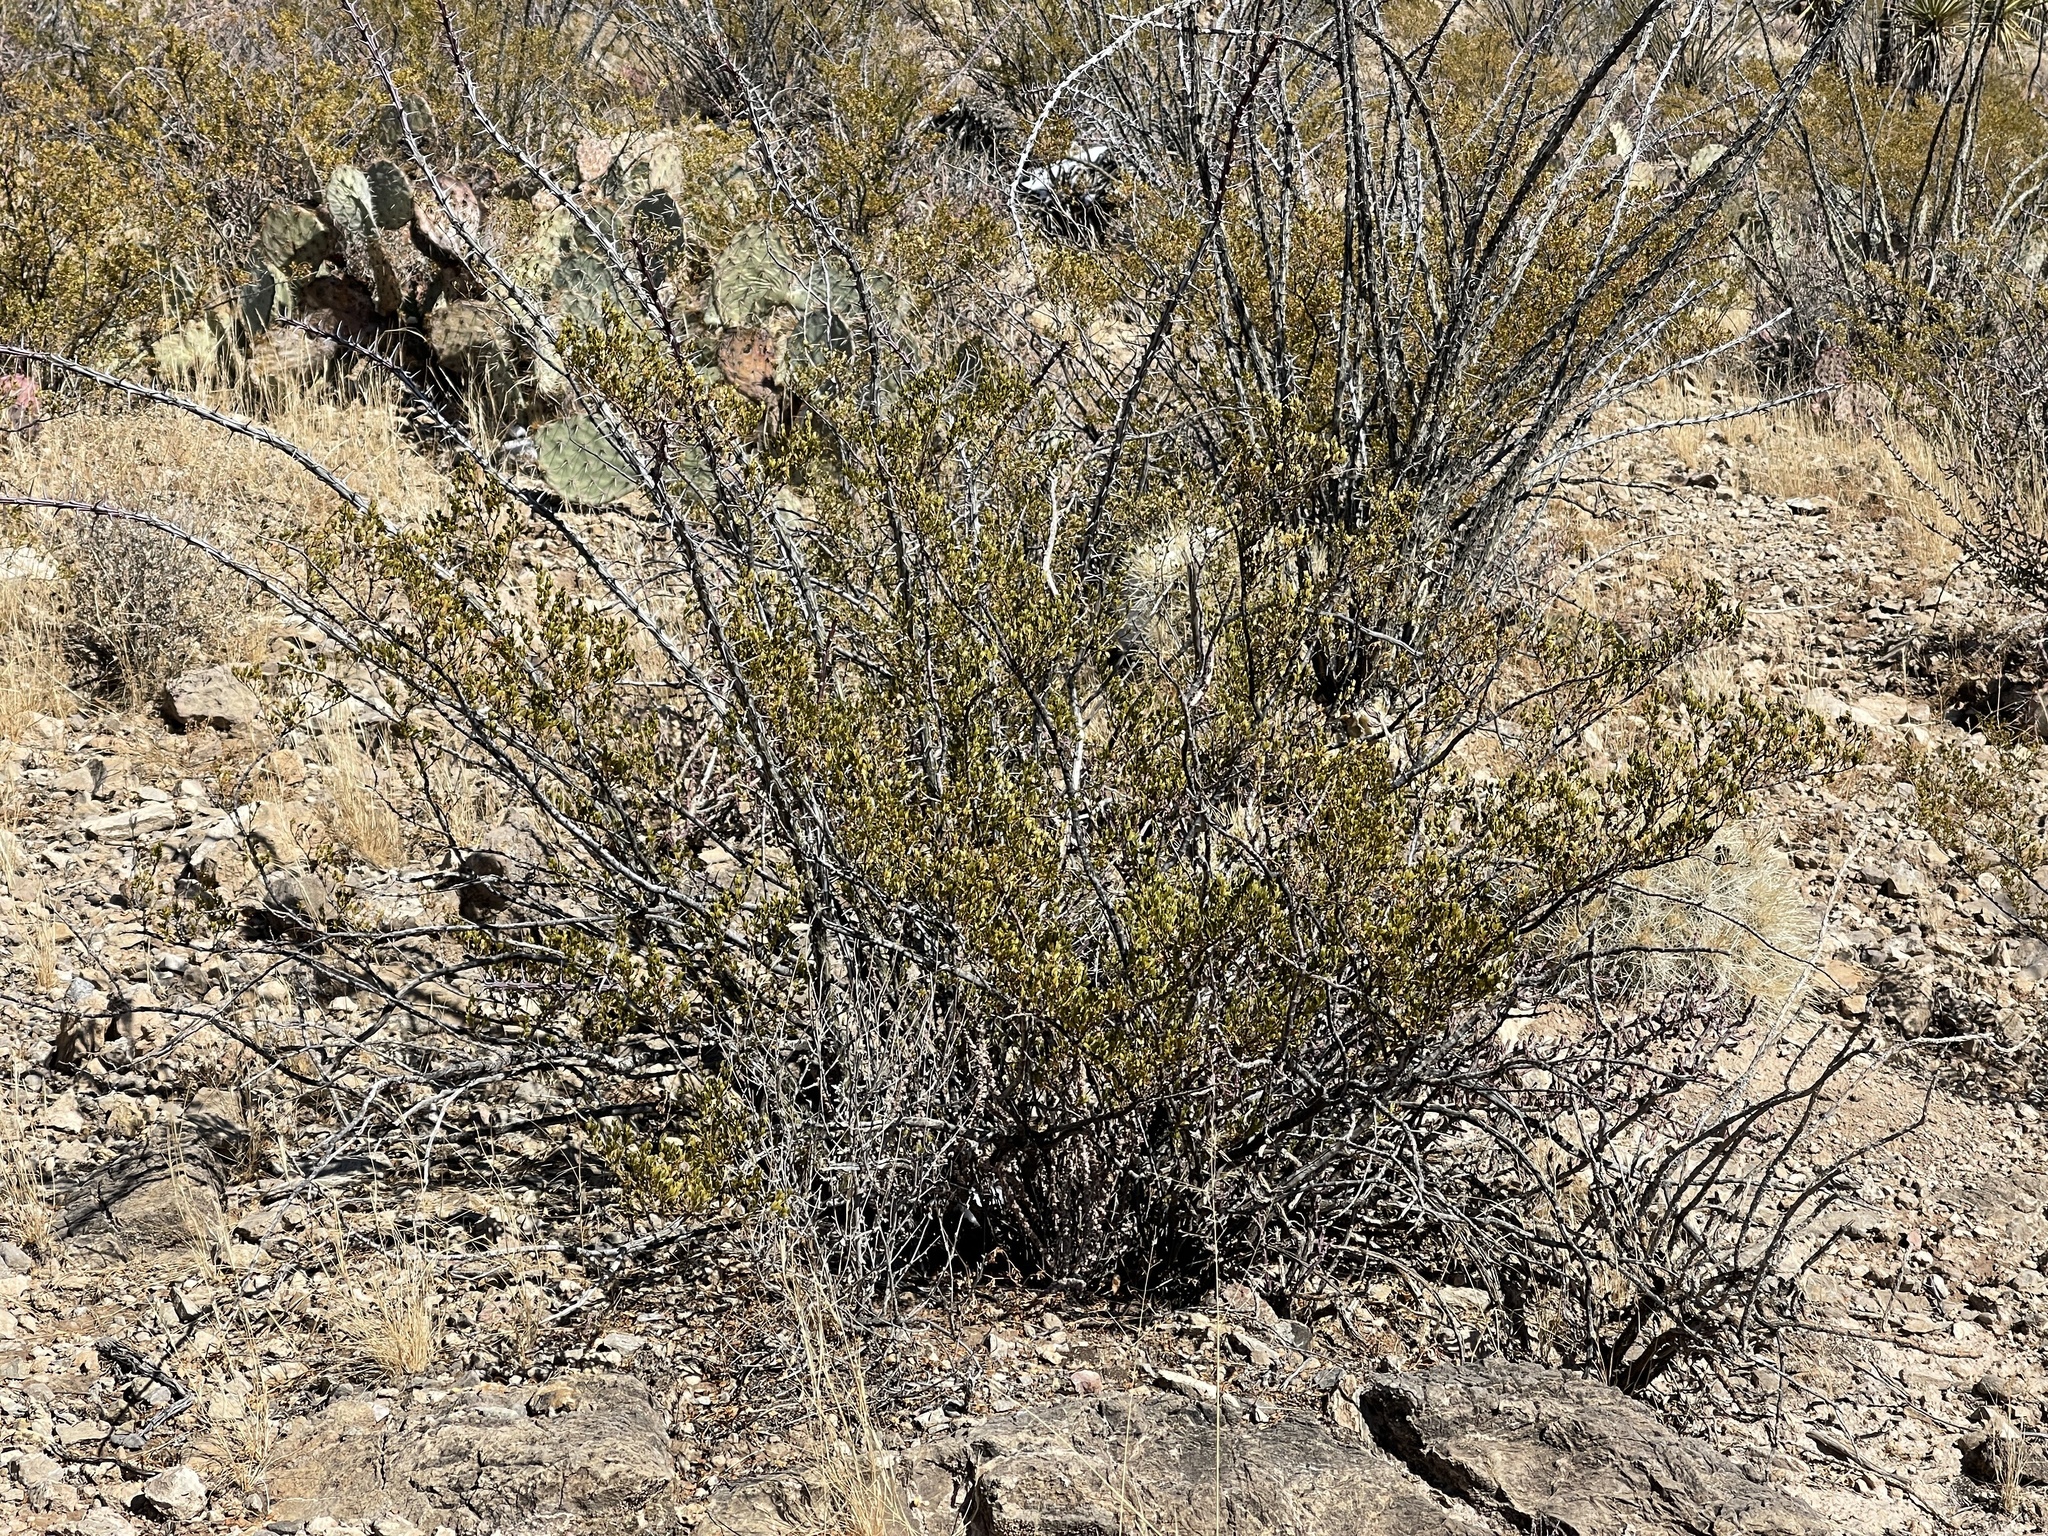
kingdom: Plantae
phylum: Tracheophyta
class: Magnoliopsida
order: Zygophyllales
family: Zygophyllaceae
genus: Larrea
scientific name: Larrea tridentata
